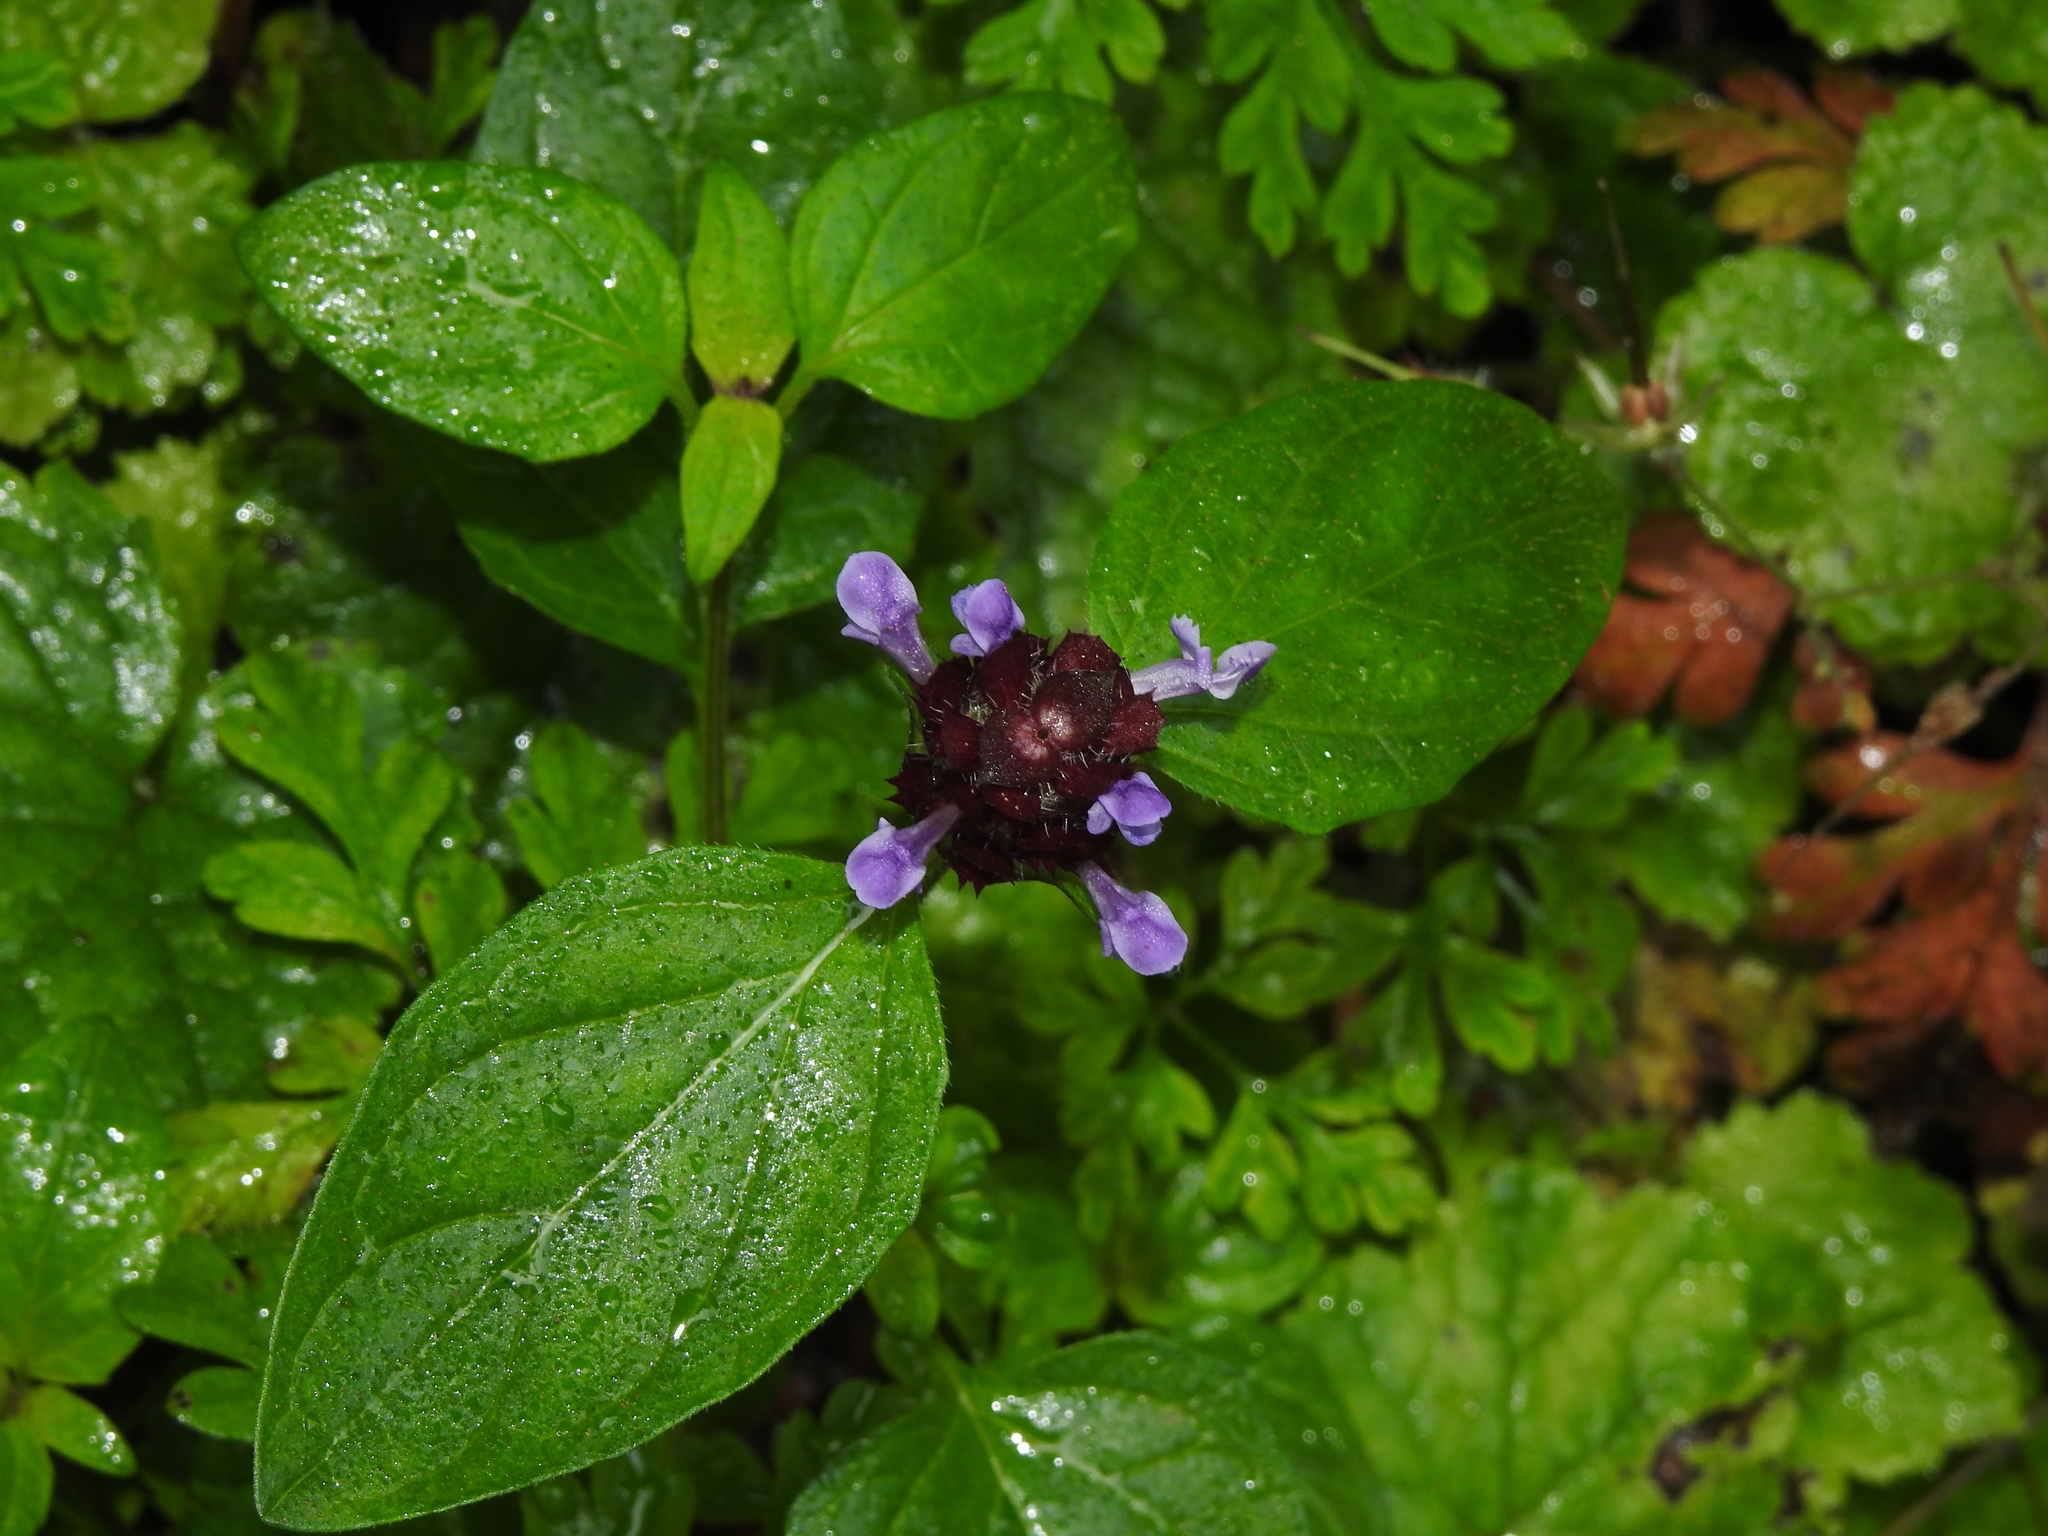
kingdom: Plantae
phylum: Tracheophyta
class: Magnoliopsida
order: Lamiales
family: Lamiaceae
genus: Prunella
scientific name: Prunella vulgaris
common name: Heal-all
